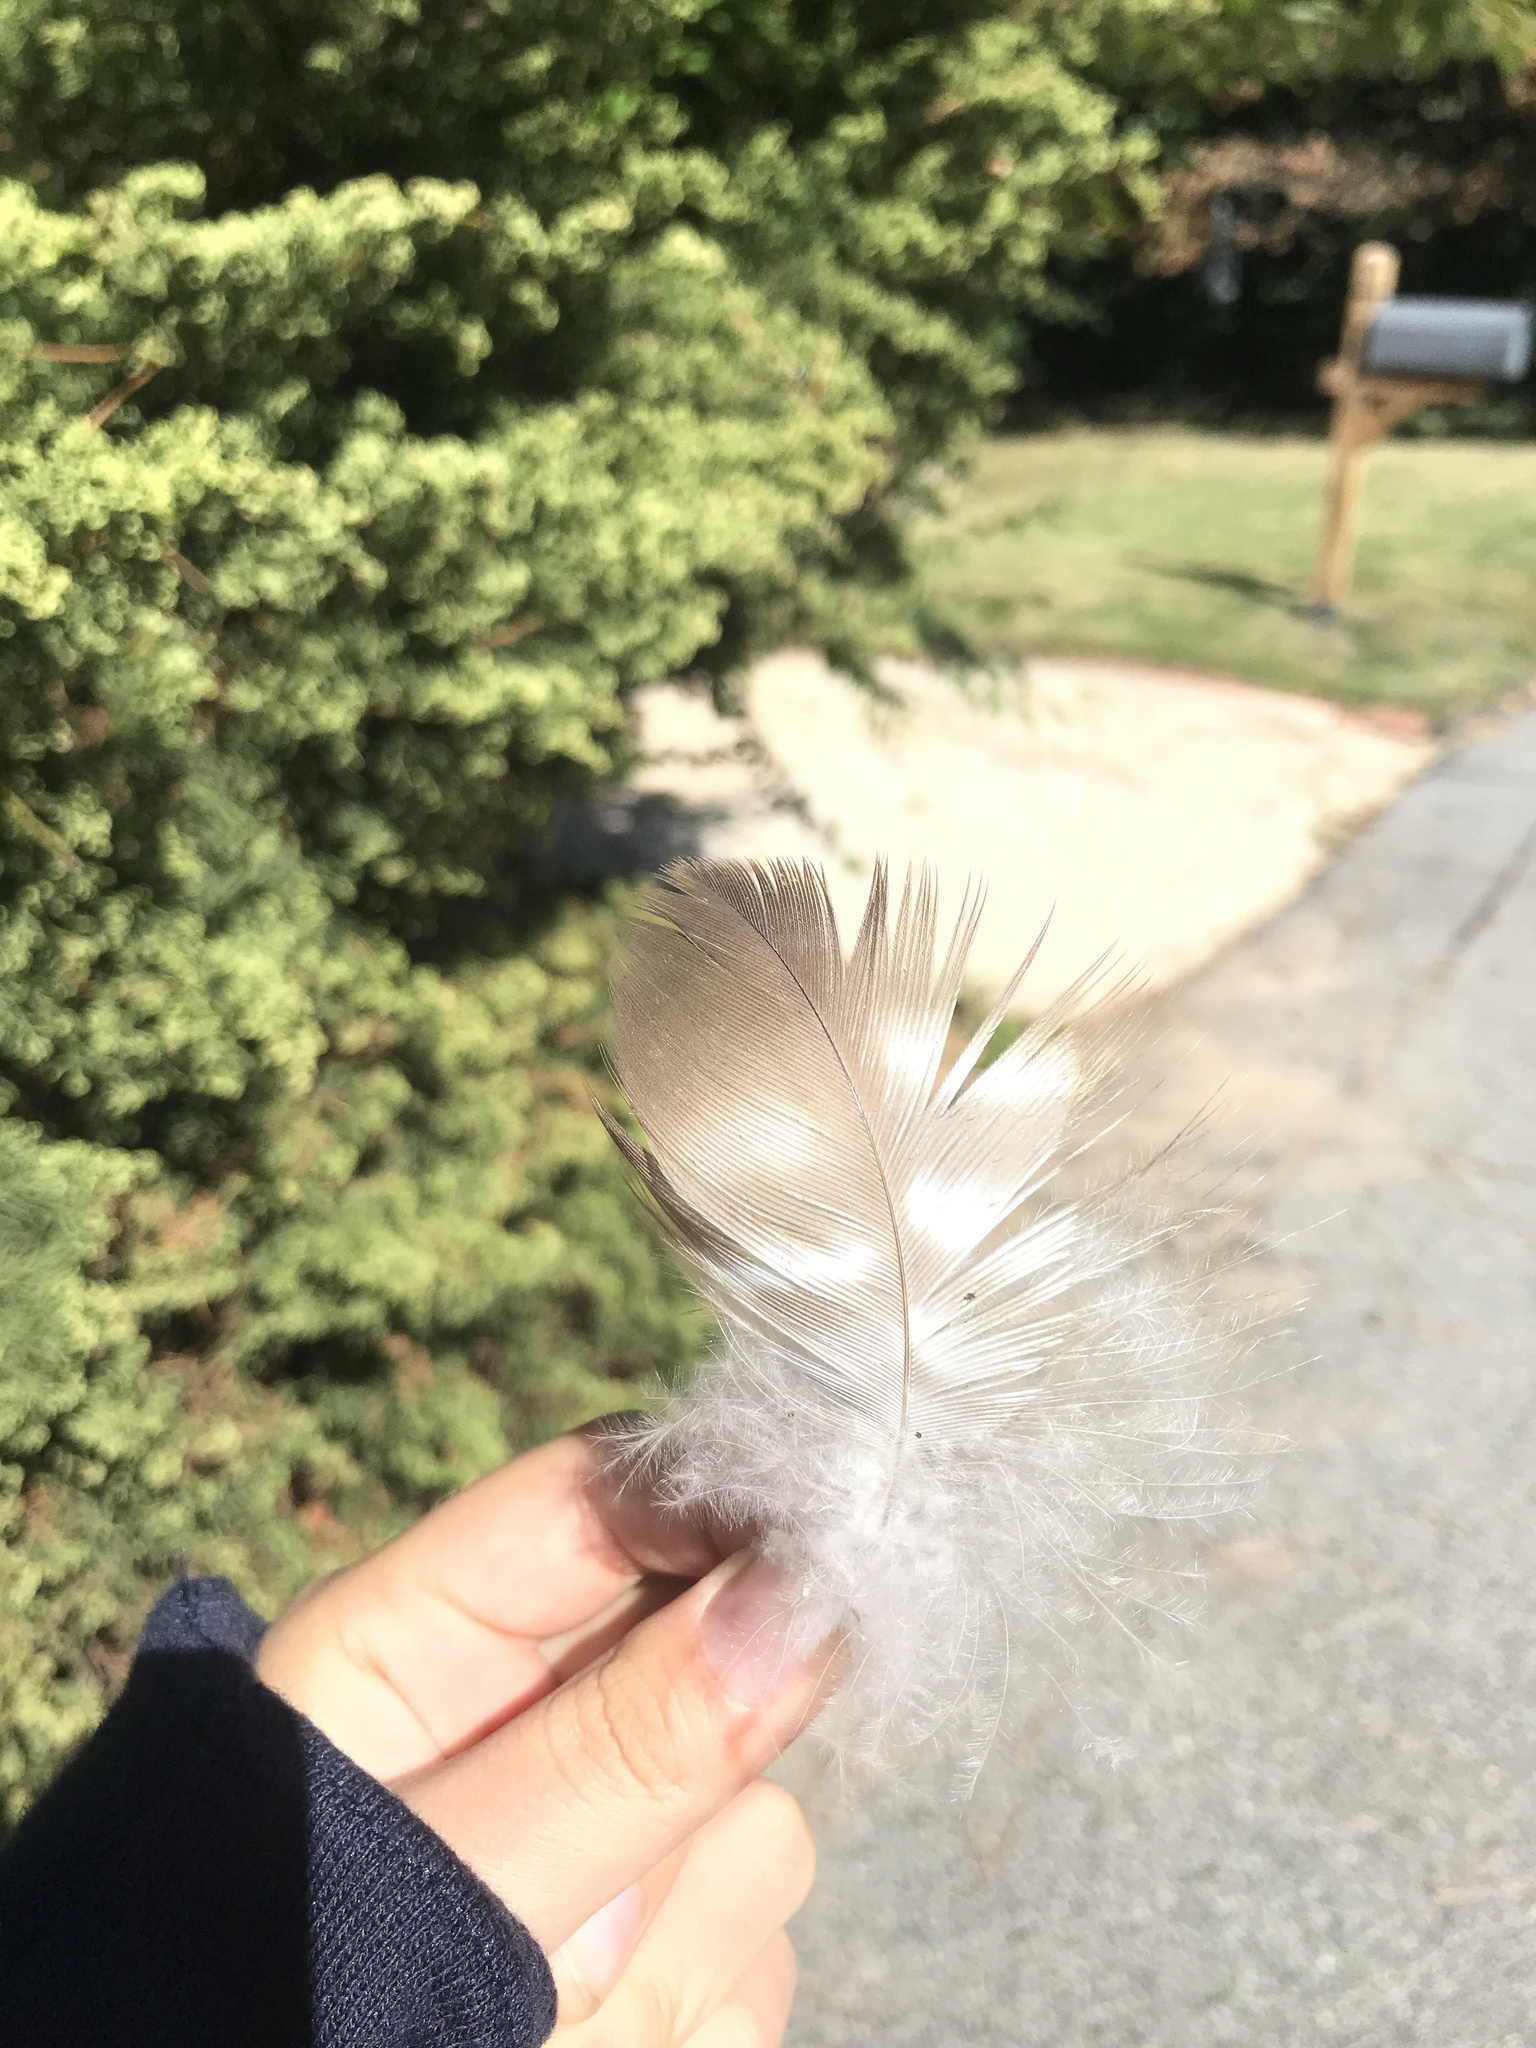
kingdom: Animalia
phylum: Chordata
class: Aves
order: Accipitriformes
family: Accipitridae
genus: Buteo
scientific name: Buteo jamaicensis
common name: Red-tailed hawk
